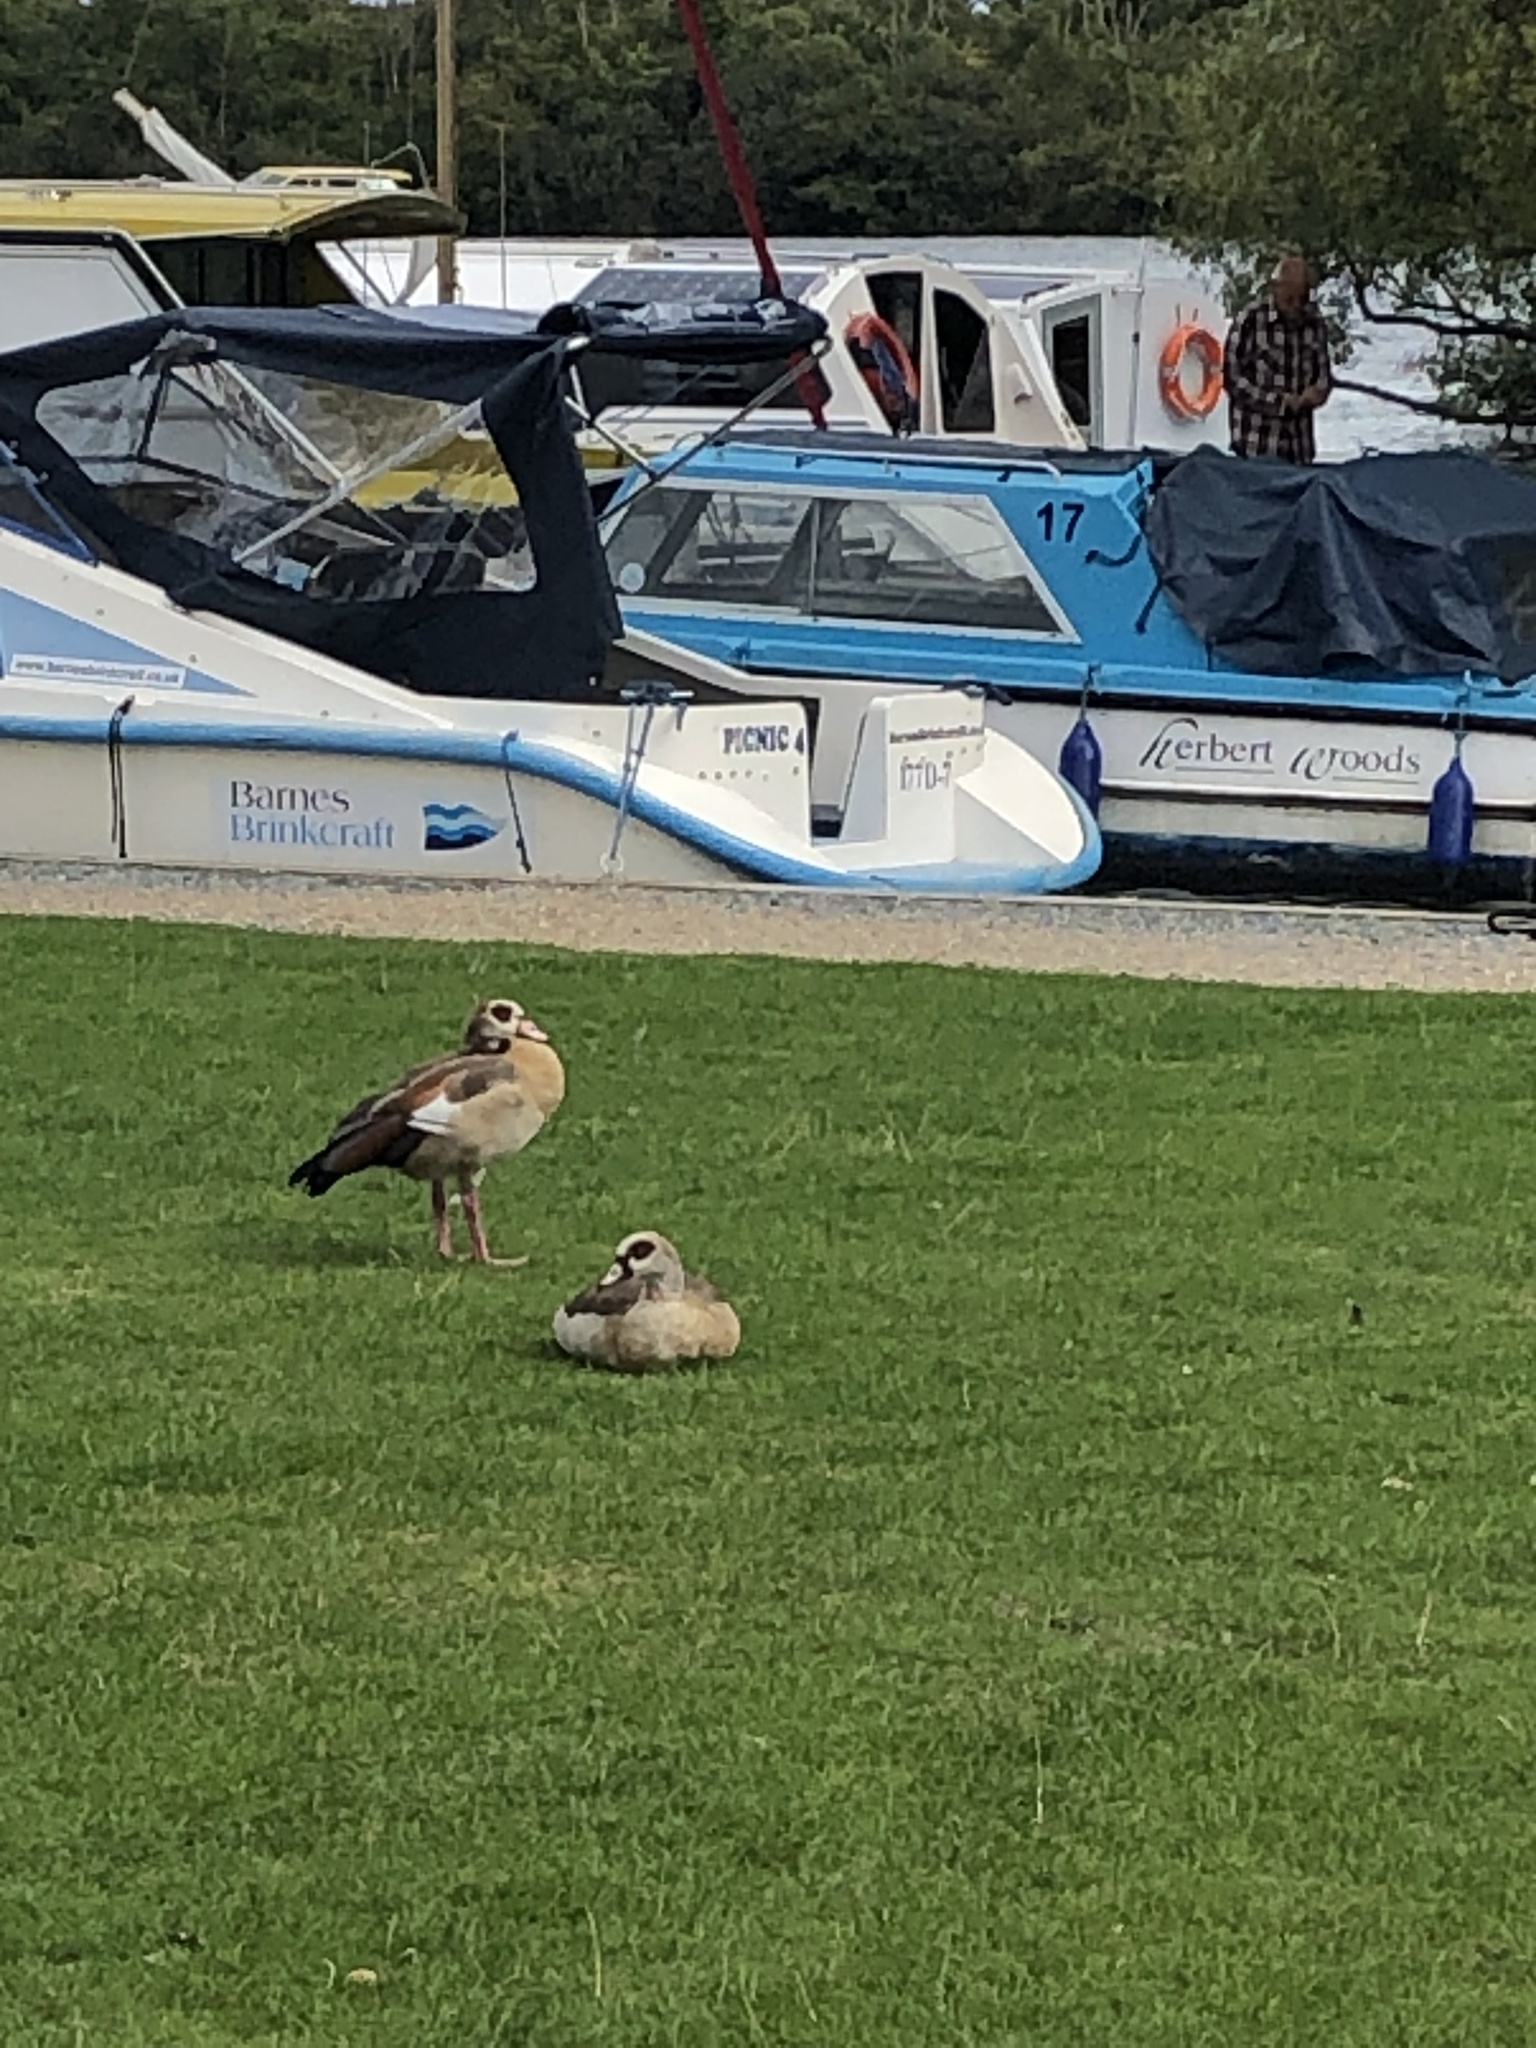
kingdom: Animalia
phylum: Chordata
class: Aves
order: Anseriformes
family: Anatidae
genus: Alopochen
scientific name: Alopochen aegyptiaca
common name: Egyptian goose
